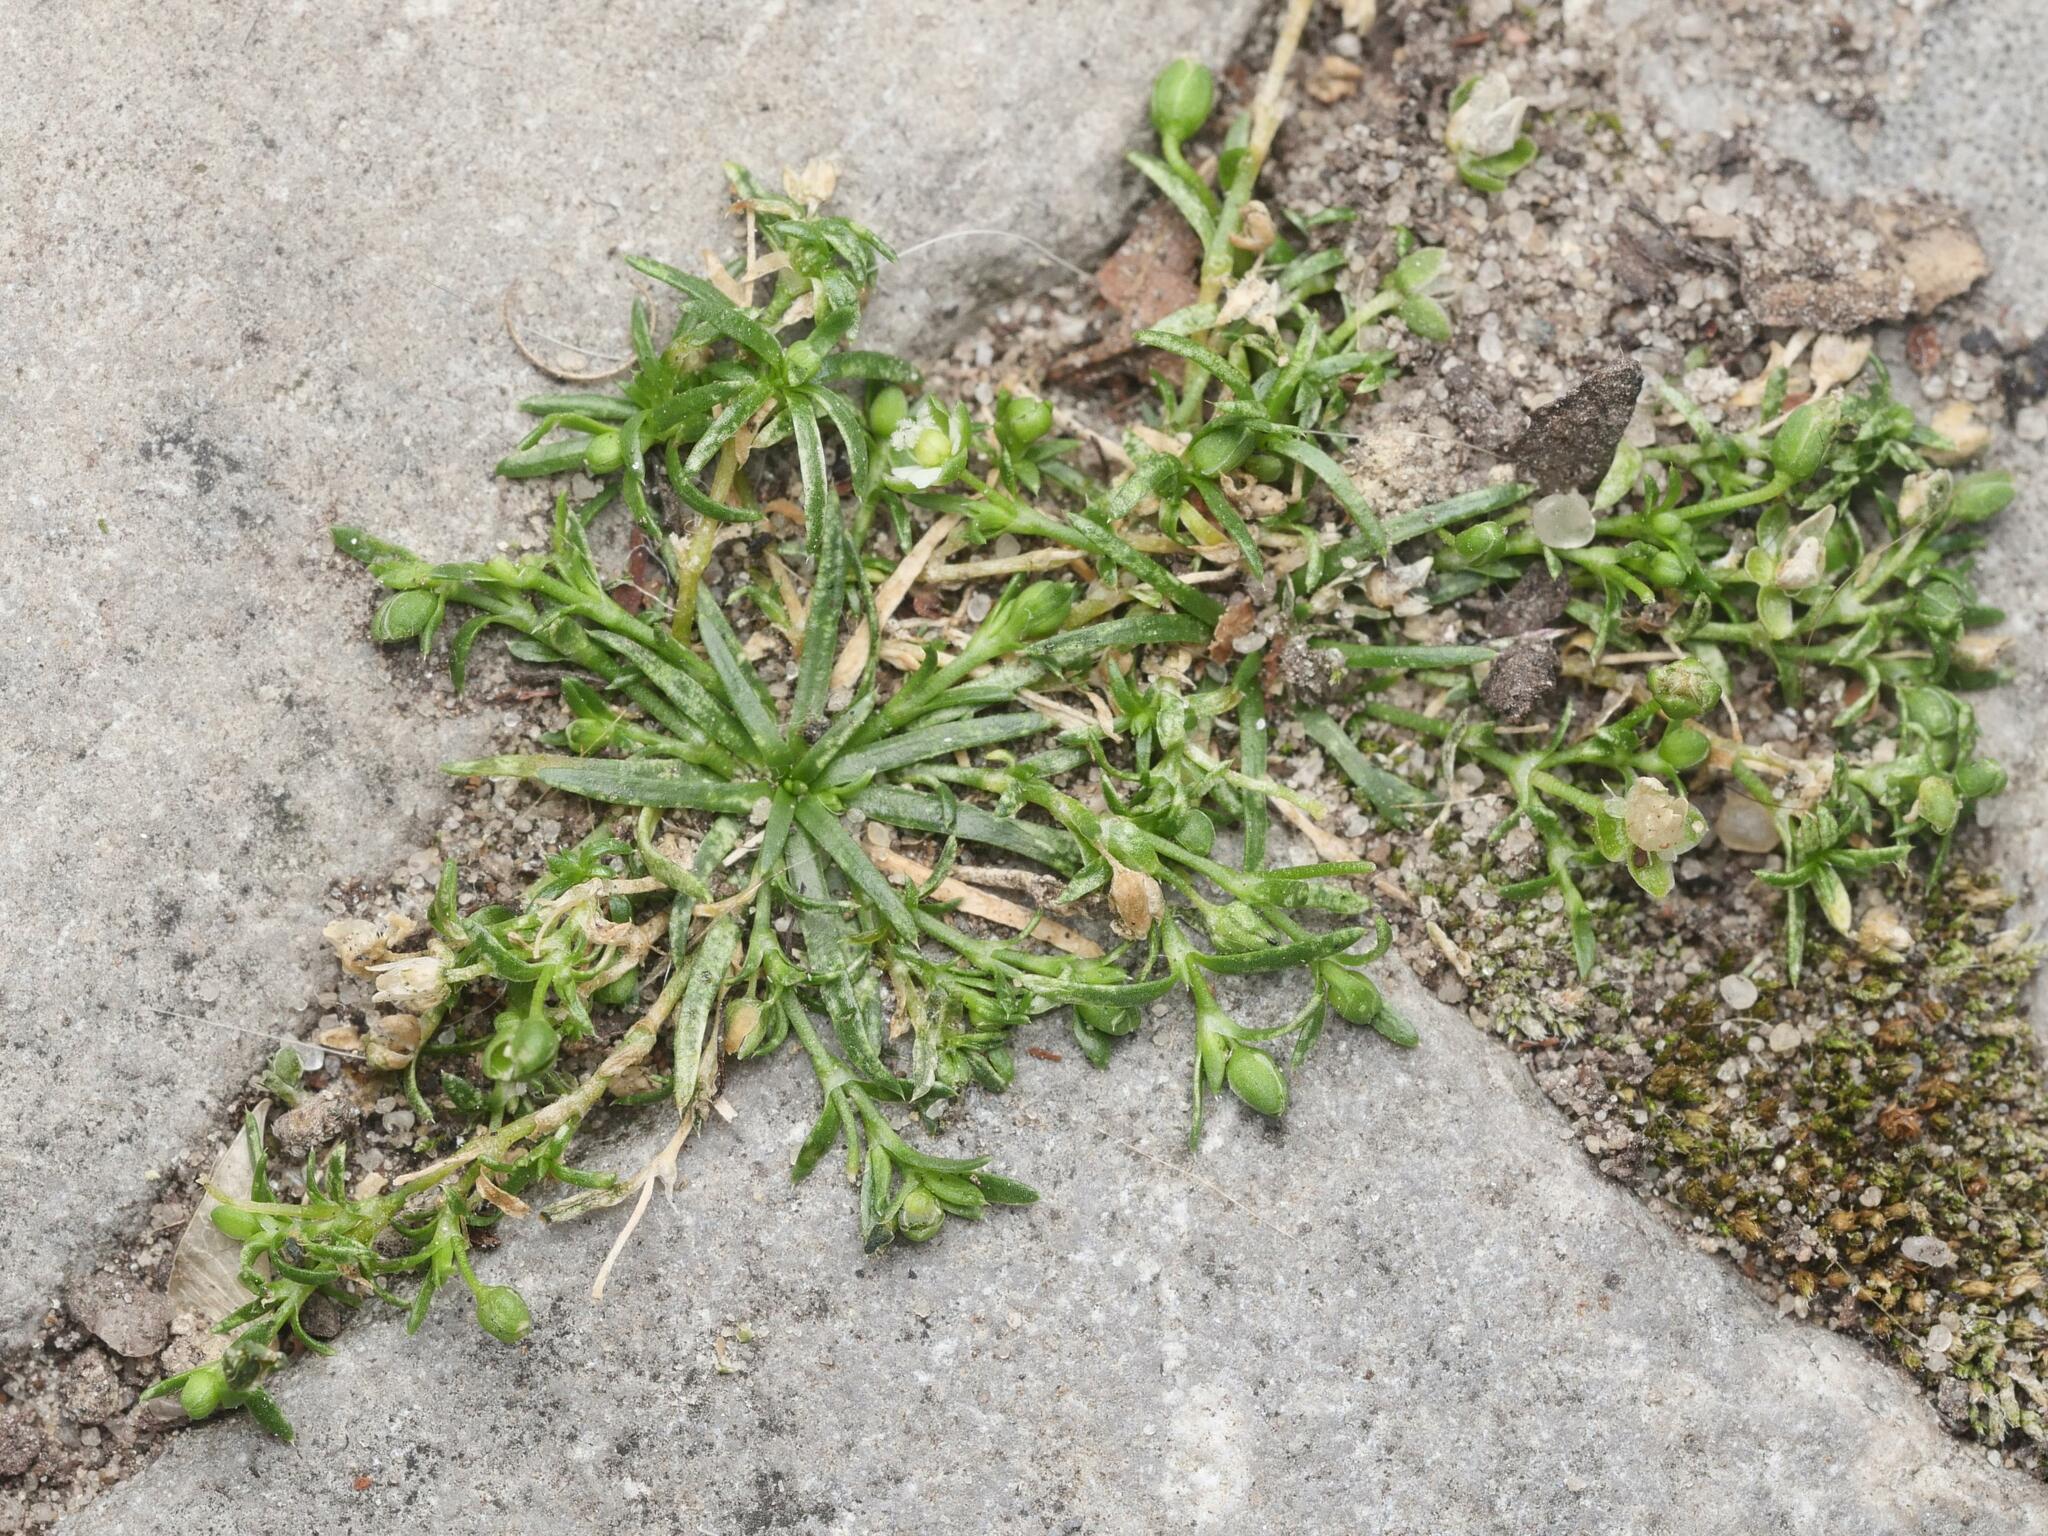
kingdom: Plantae
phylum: Tracheophyta
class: Magnoliopsida
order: Caryophyllales
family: Caryophyllaceae
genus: Sagina
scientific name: Sagina procumbens
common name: Procumbent pearlwort
